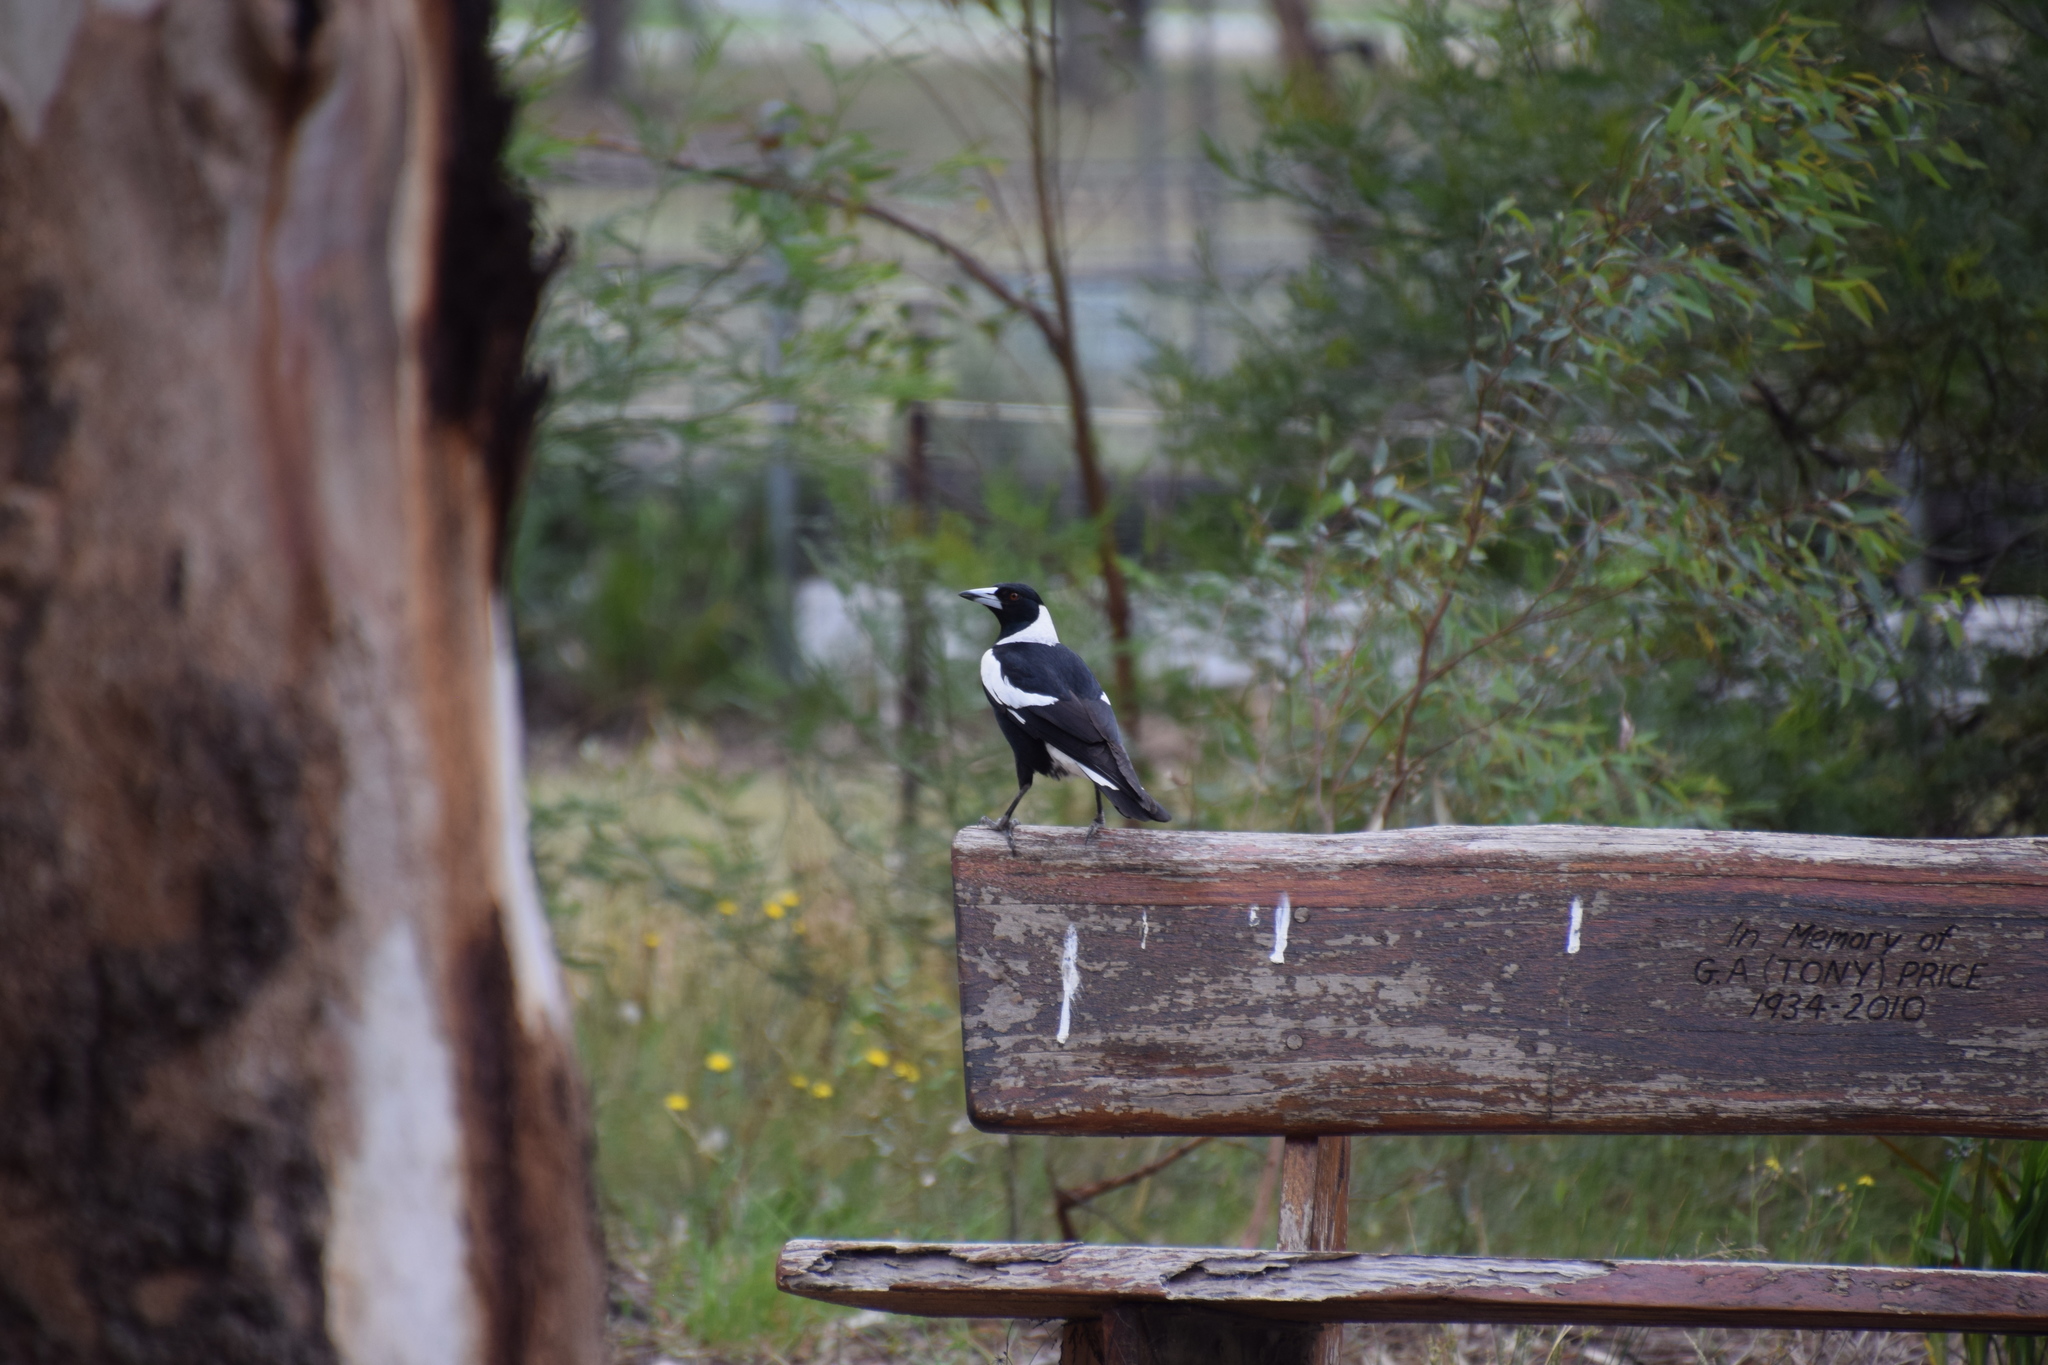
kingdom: Animalia
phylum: Chordata
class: Aves
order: Passeriformes
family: Cracticidae
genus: Gymnorhina
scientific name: Gymnorhina tibicen
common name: Australian magpie
